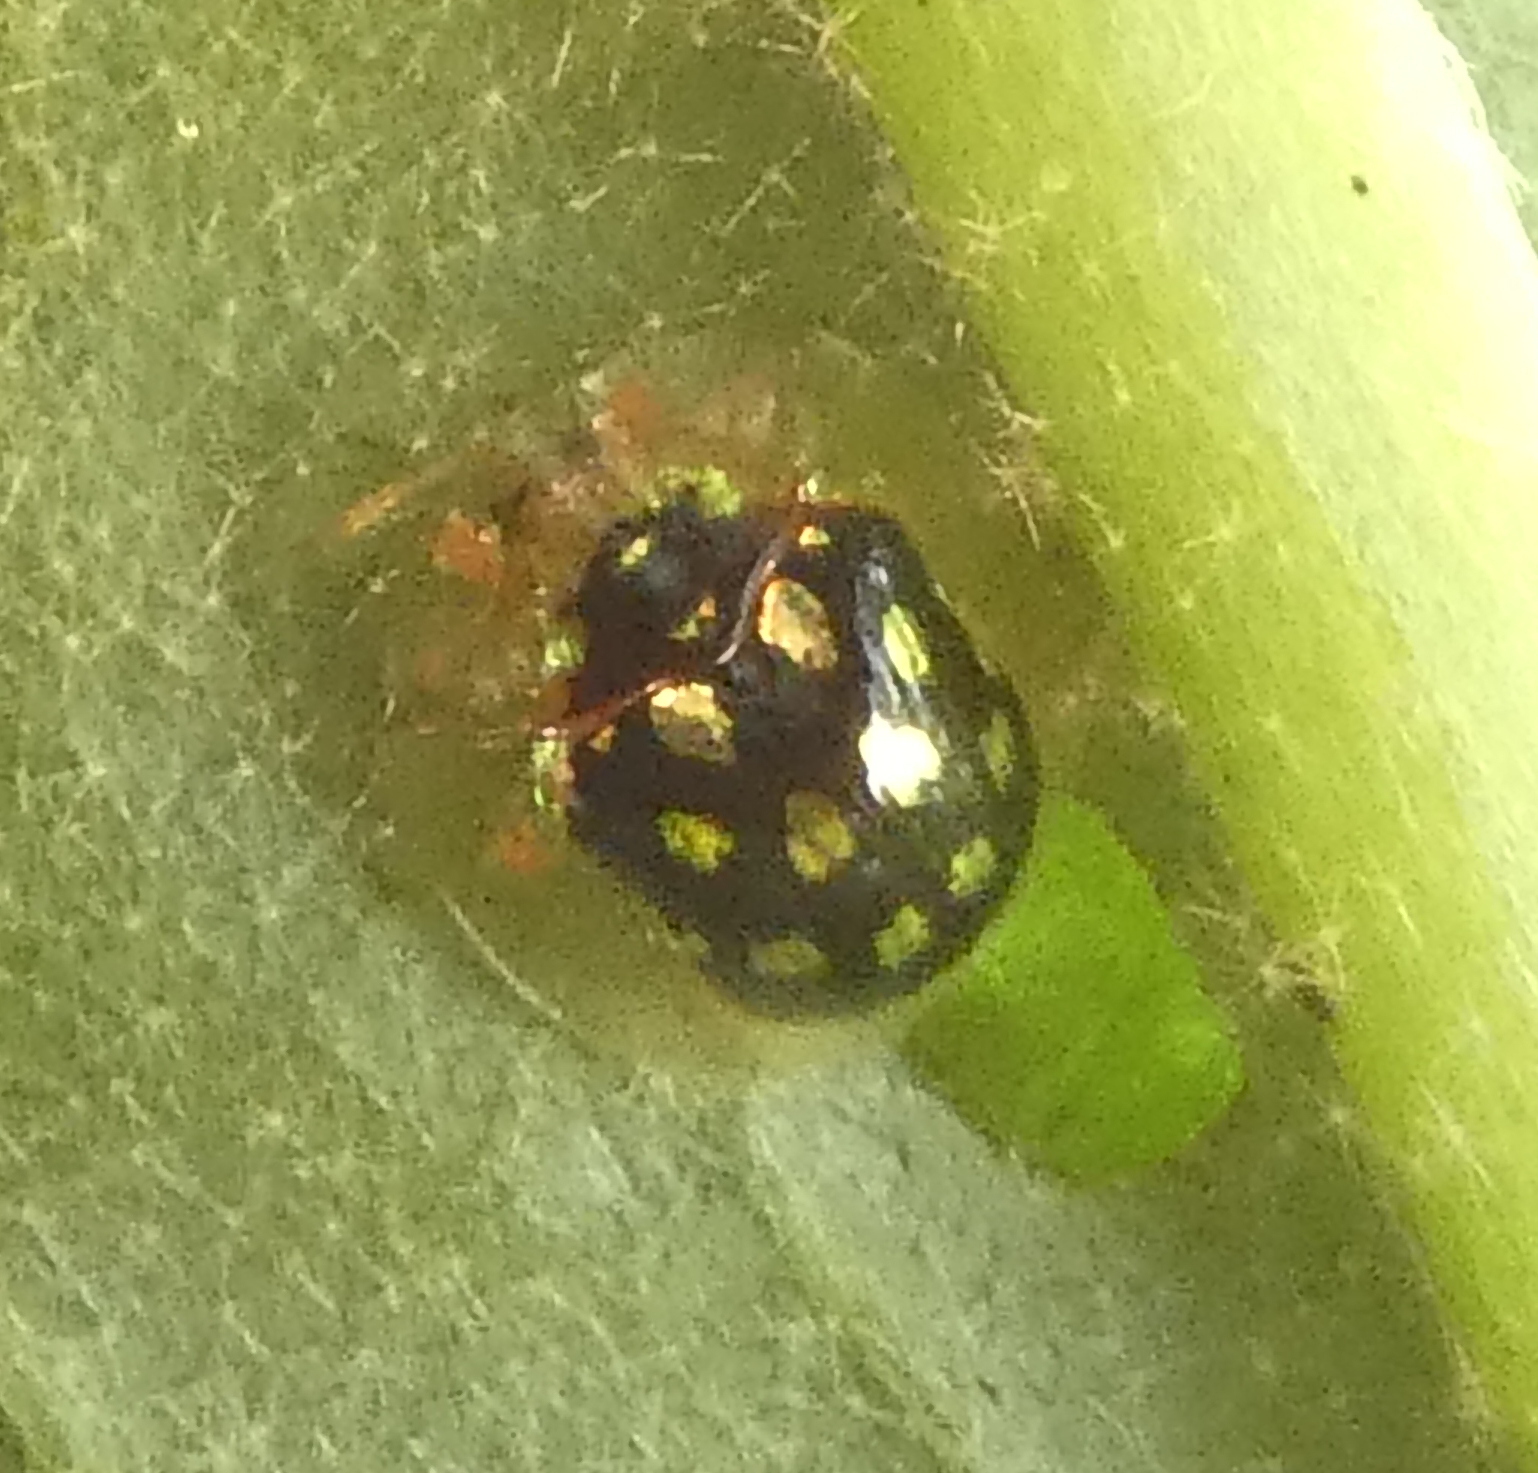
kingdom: Animalia
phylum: Arthropoda
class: Insecta
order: Coleoptera
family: Chrysomelidae
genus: Plagiometriona
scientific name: Plagiometriona microcera
